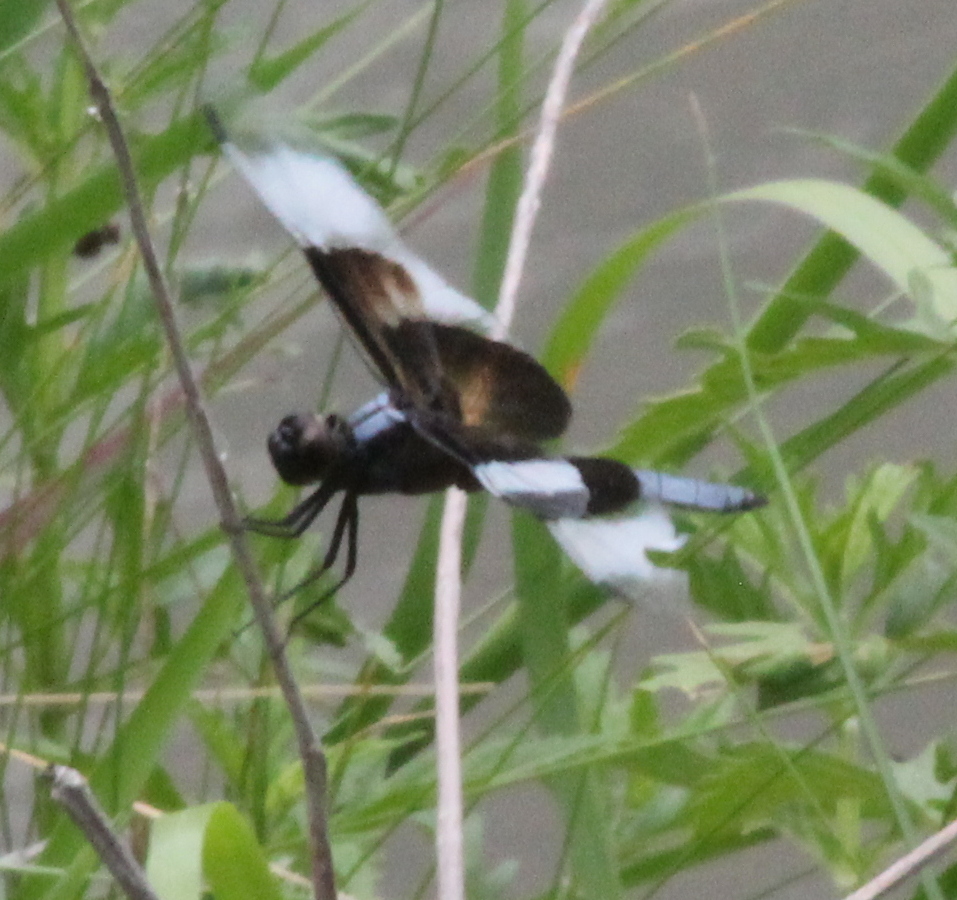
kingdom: Animalia
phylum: Arthropoda
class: Insecta
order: Odonata
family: Libellulidae
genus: Libellula
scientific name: Libellula luctuosa
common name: Widow skimmer
